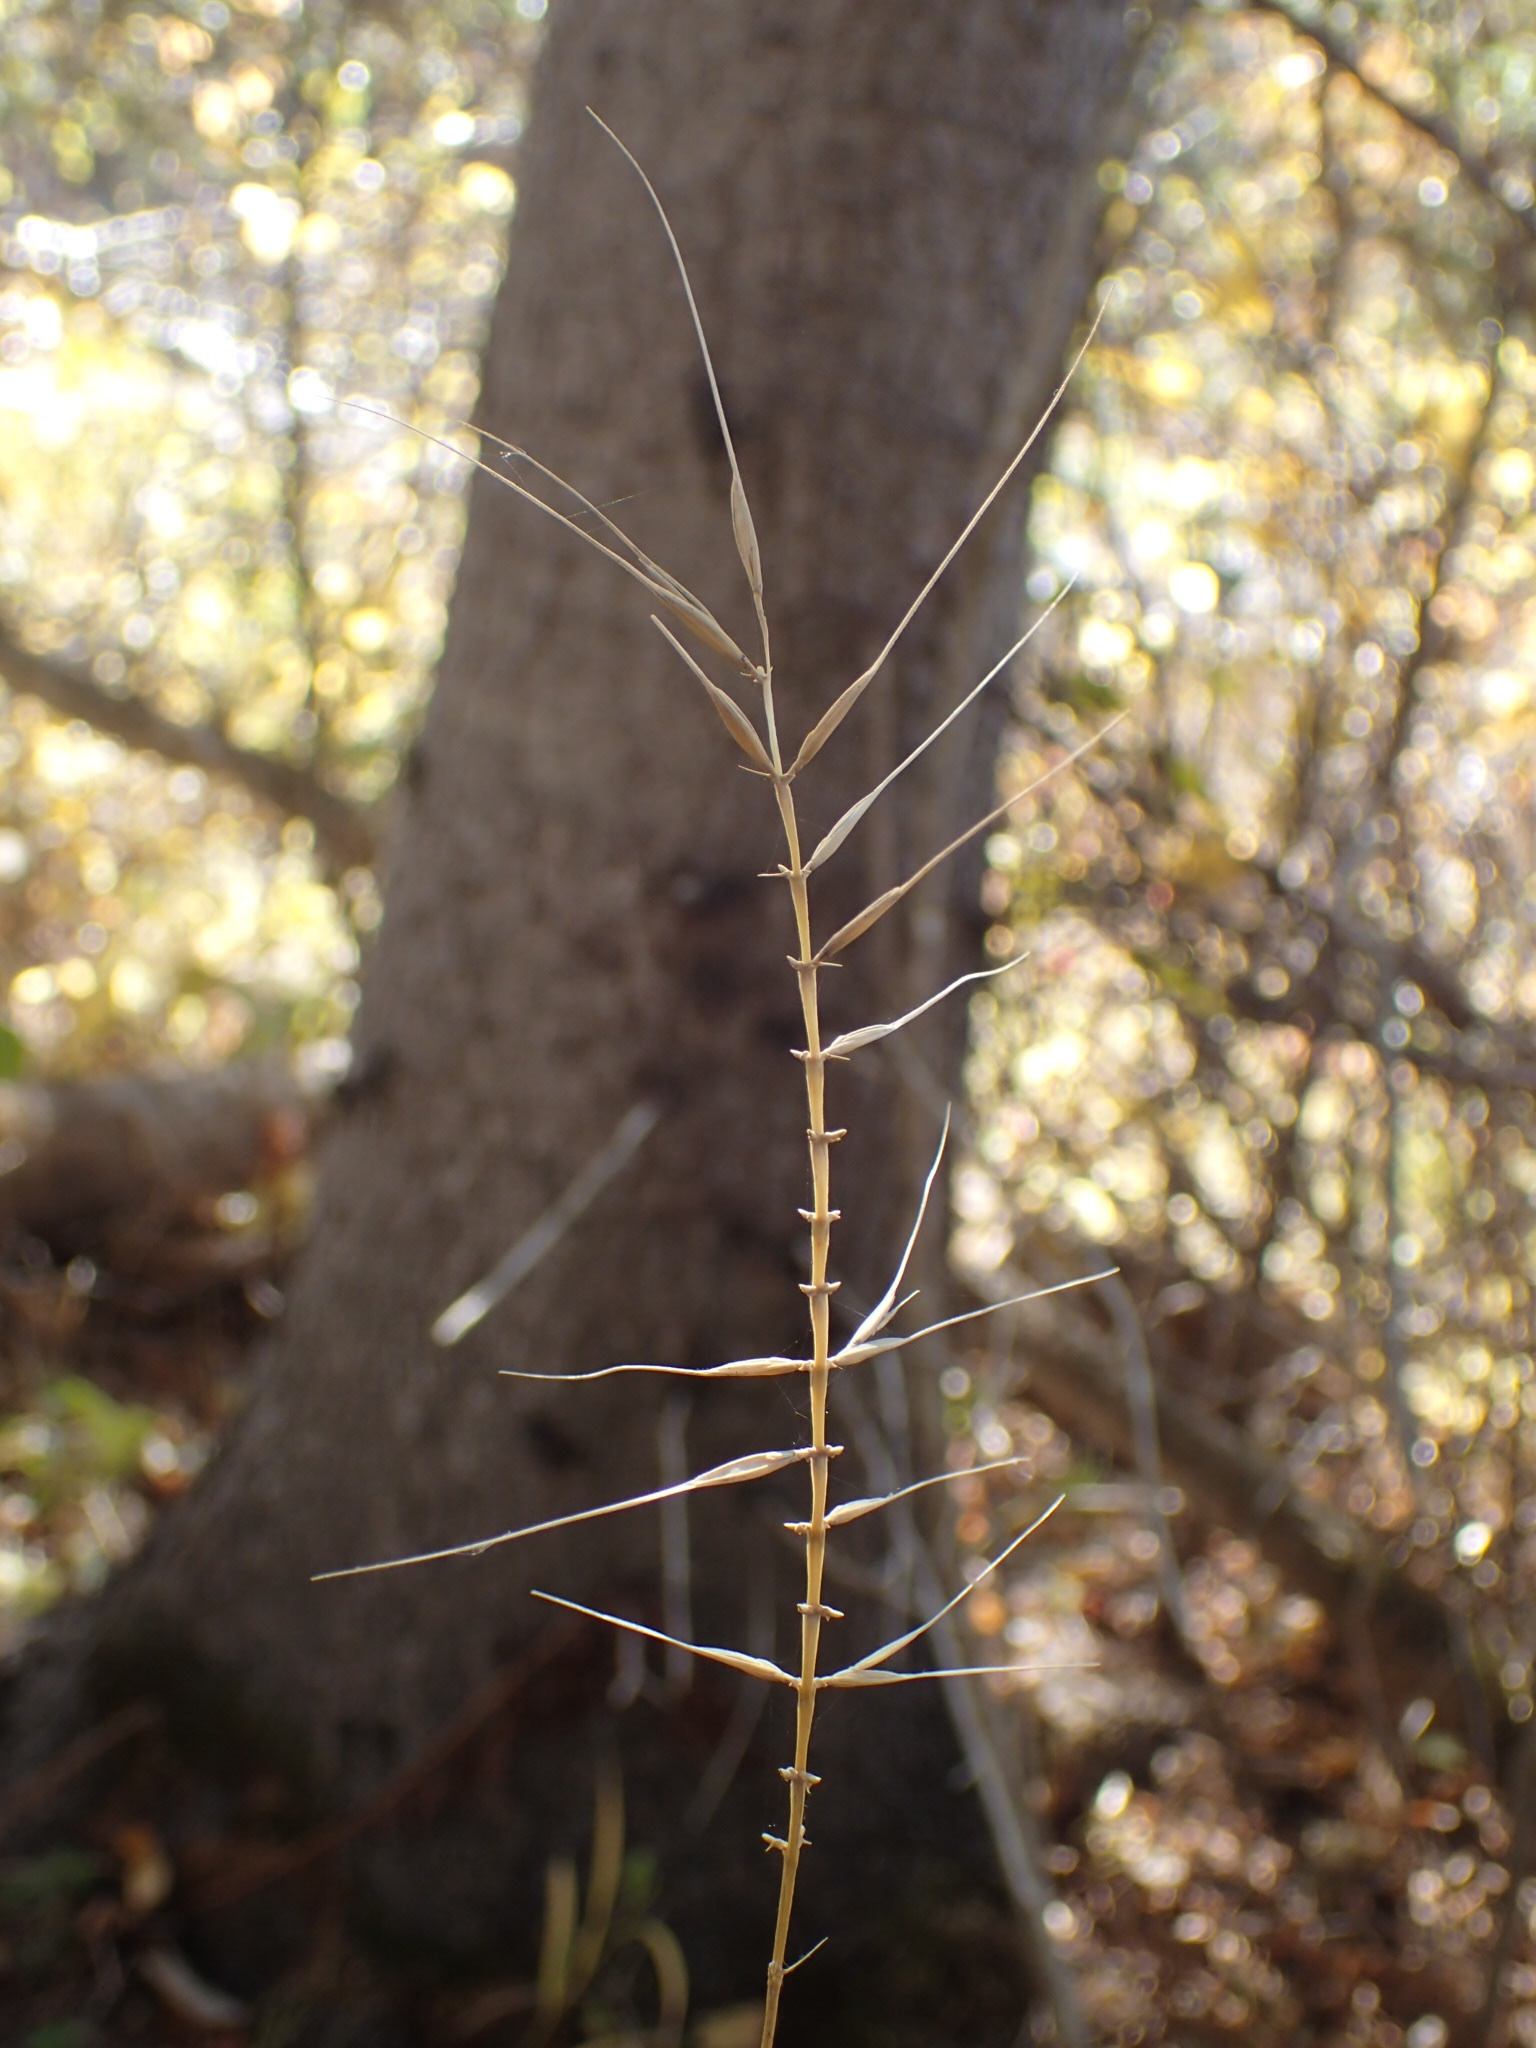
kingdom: Plantae
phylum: Tracheophyta
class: Liliopsida
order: Poales
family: Poaceae
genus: Elymus
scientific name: Elymus hystrix
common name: Bottlebrush grass
